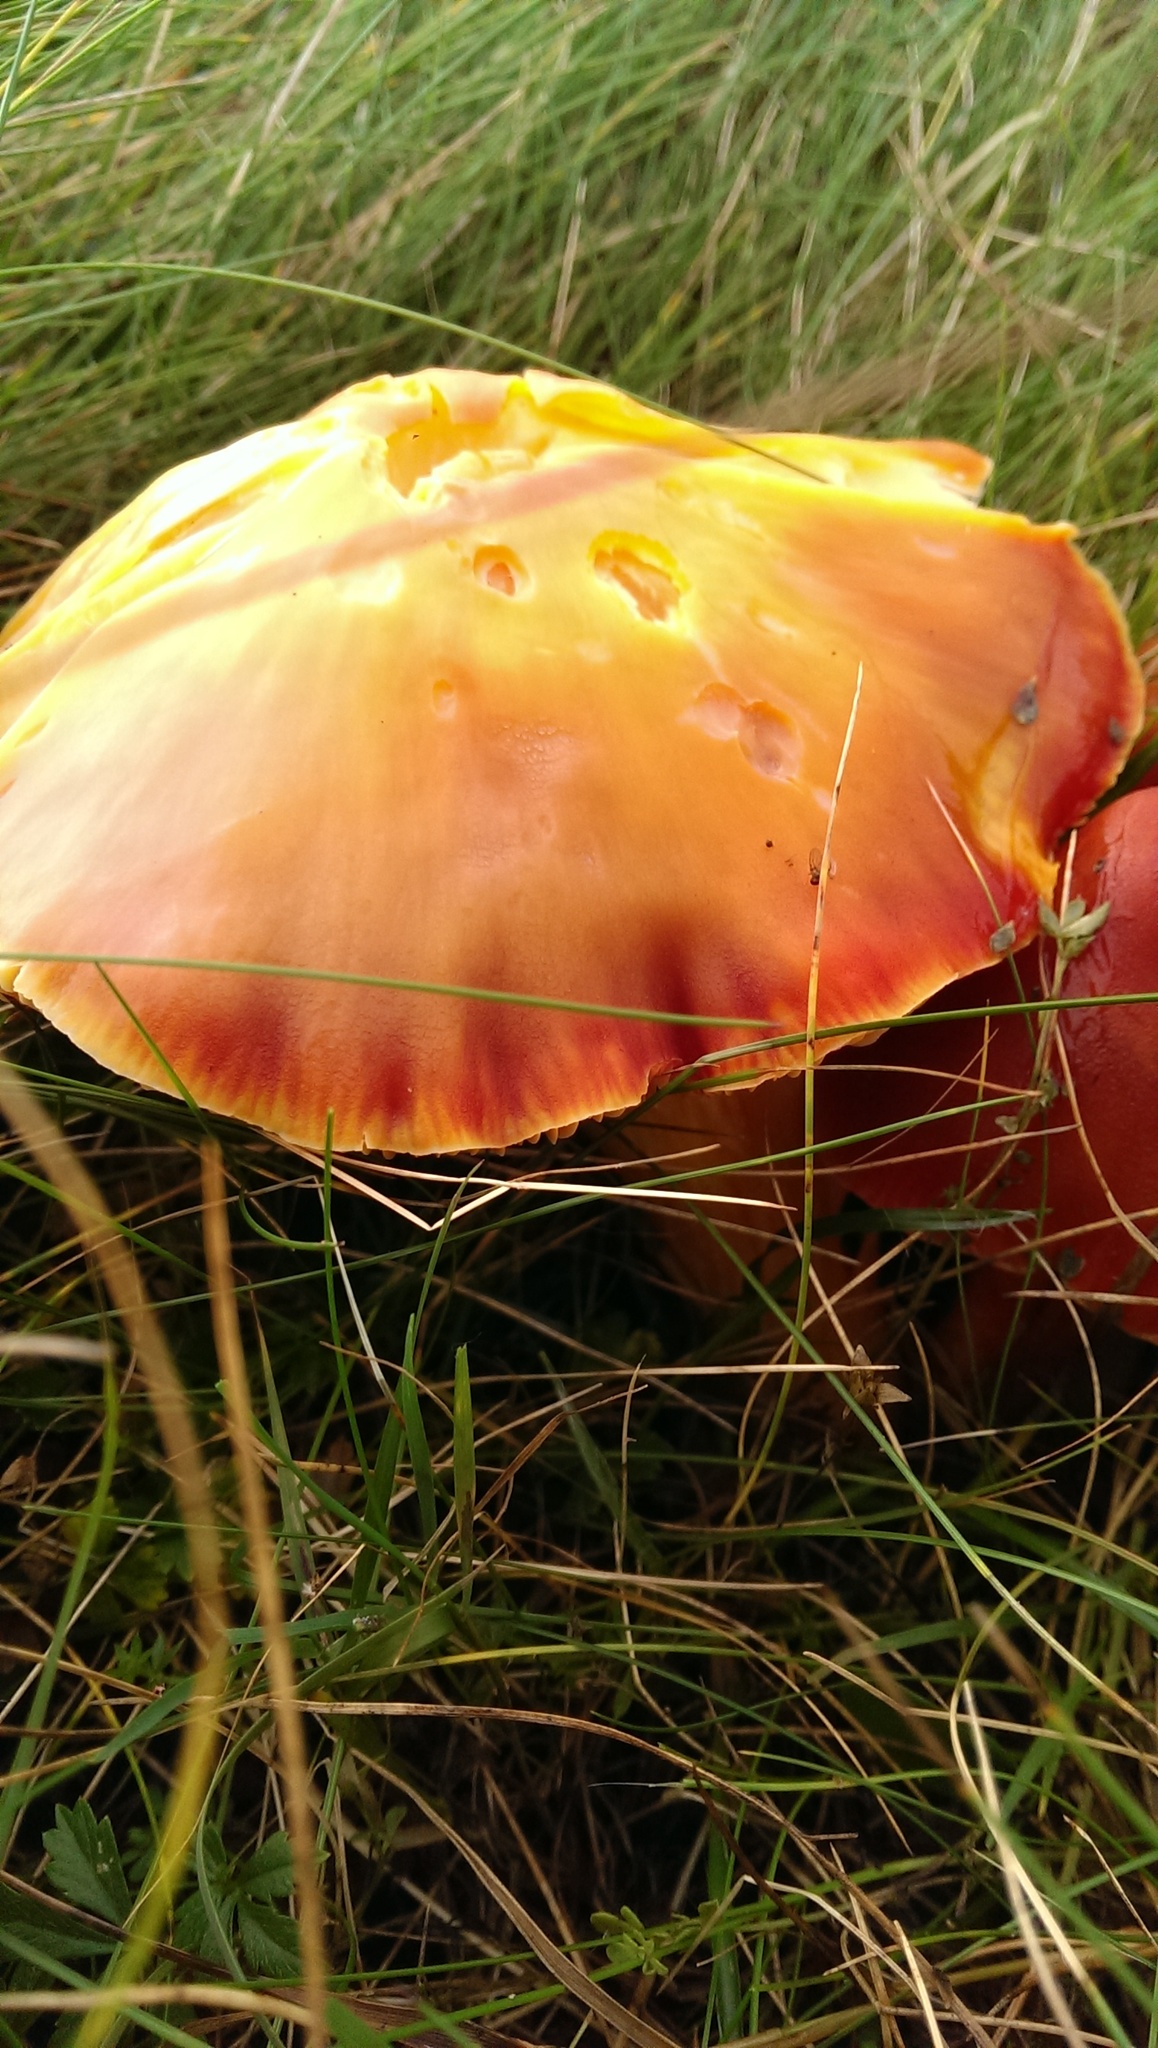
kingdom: Fungi
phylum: Basidiomycota
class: Agaricomycetes
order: Agaricales
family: Hygrophoraceae
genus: Hygrocybe
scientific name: Hygrocybe punicea
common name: Crimson waxcap
